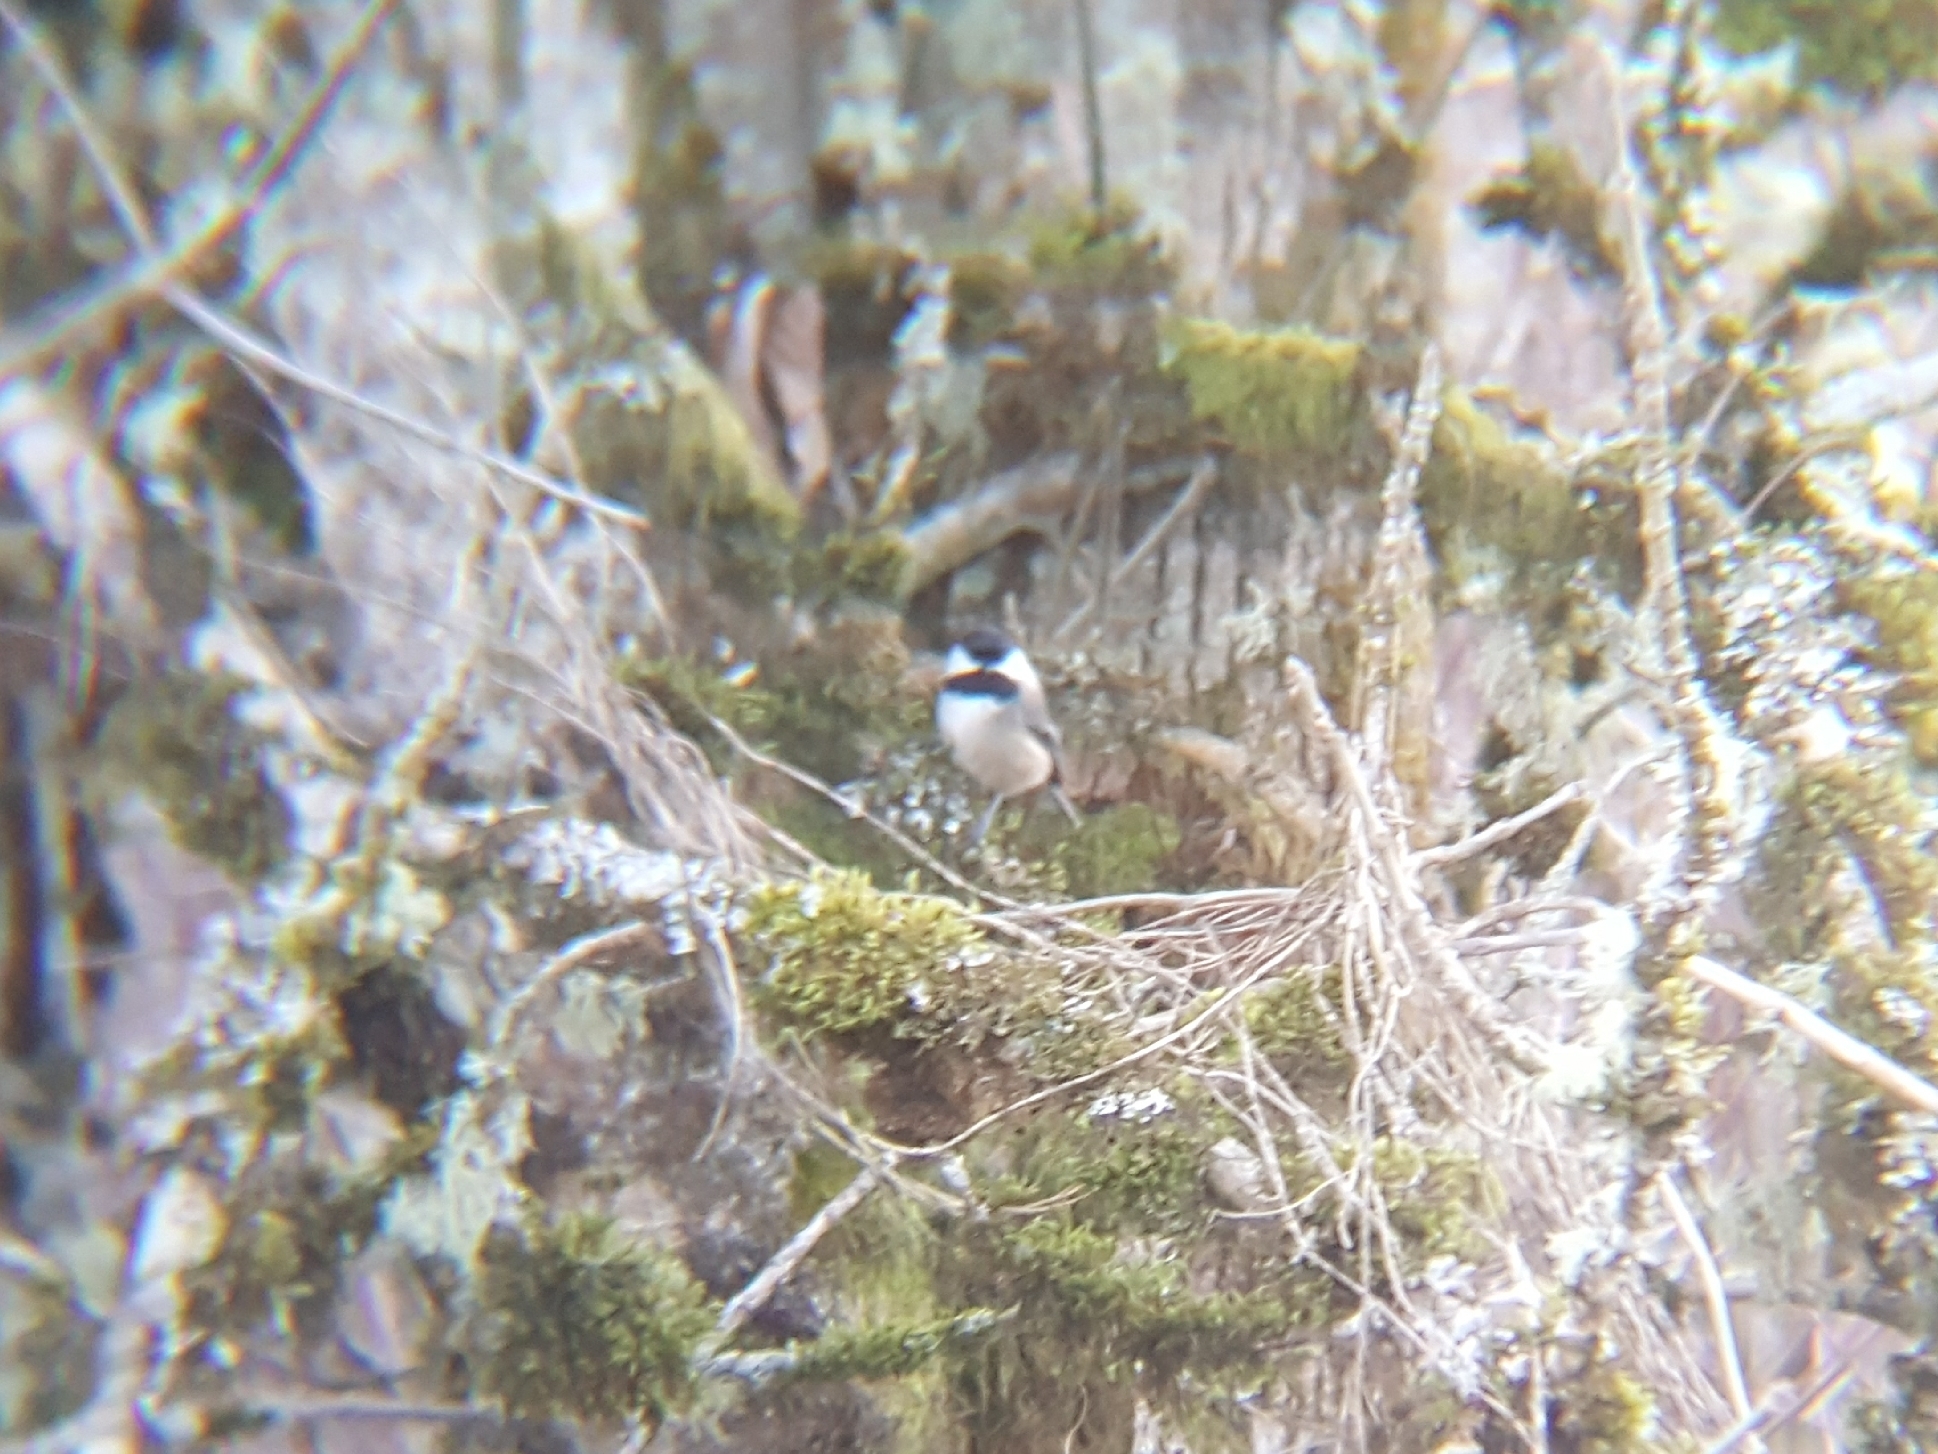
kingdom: Animalia
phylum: Chordata
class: Aves
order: Passeriformes
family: Paridae
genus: Poecile
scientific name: Poecile atricapillus
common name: Black-capped chickadee
